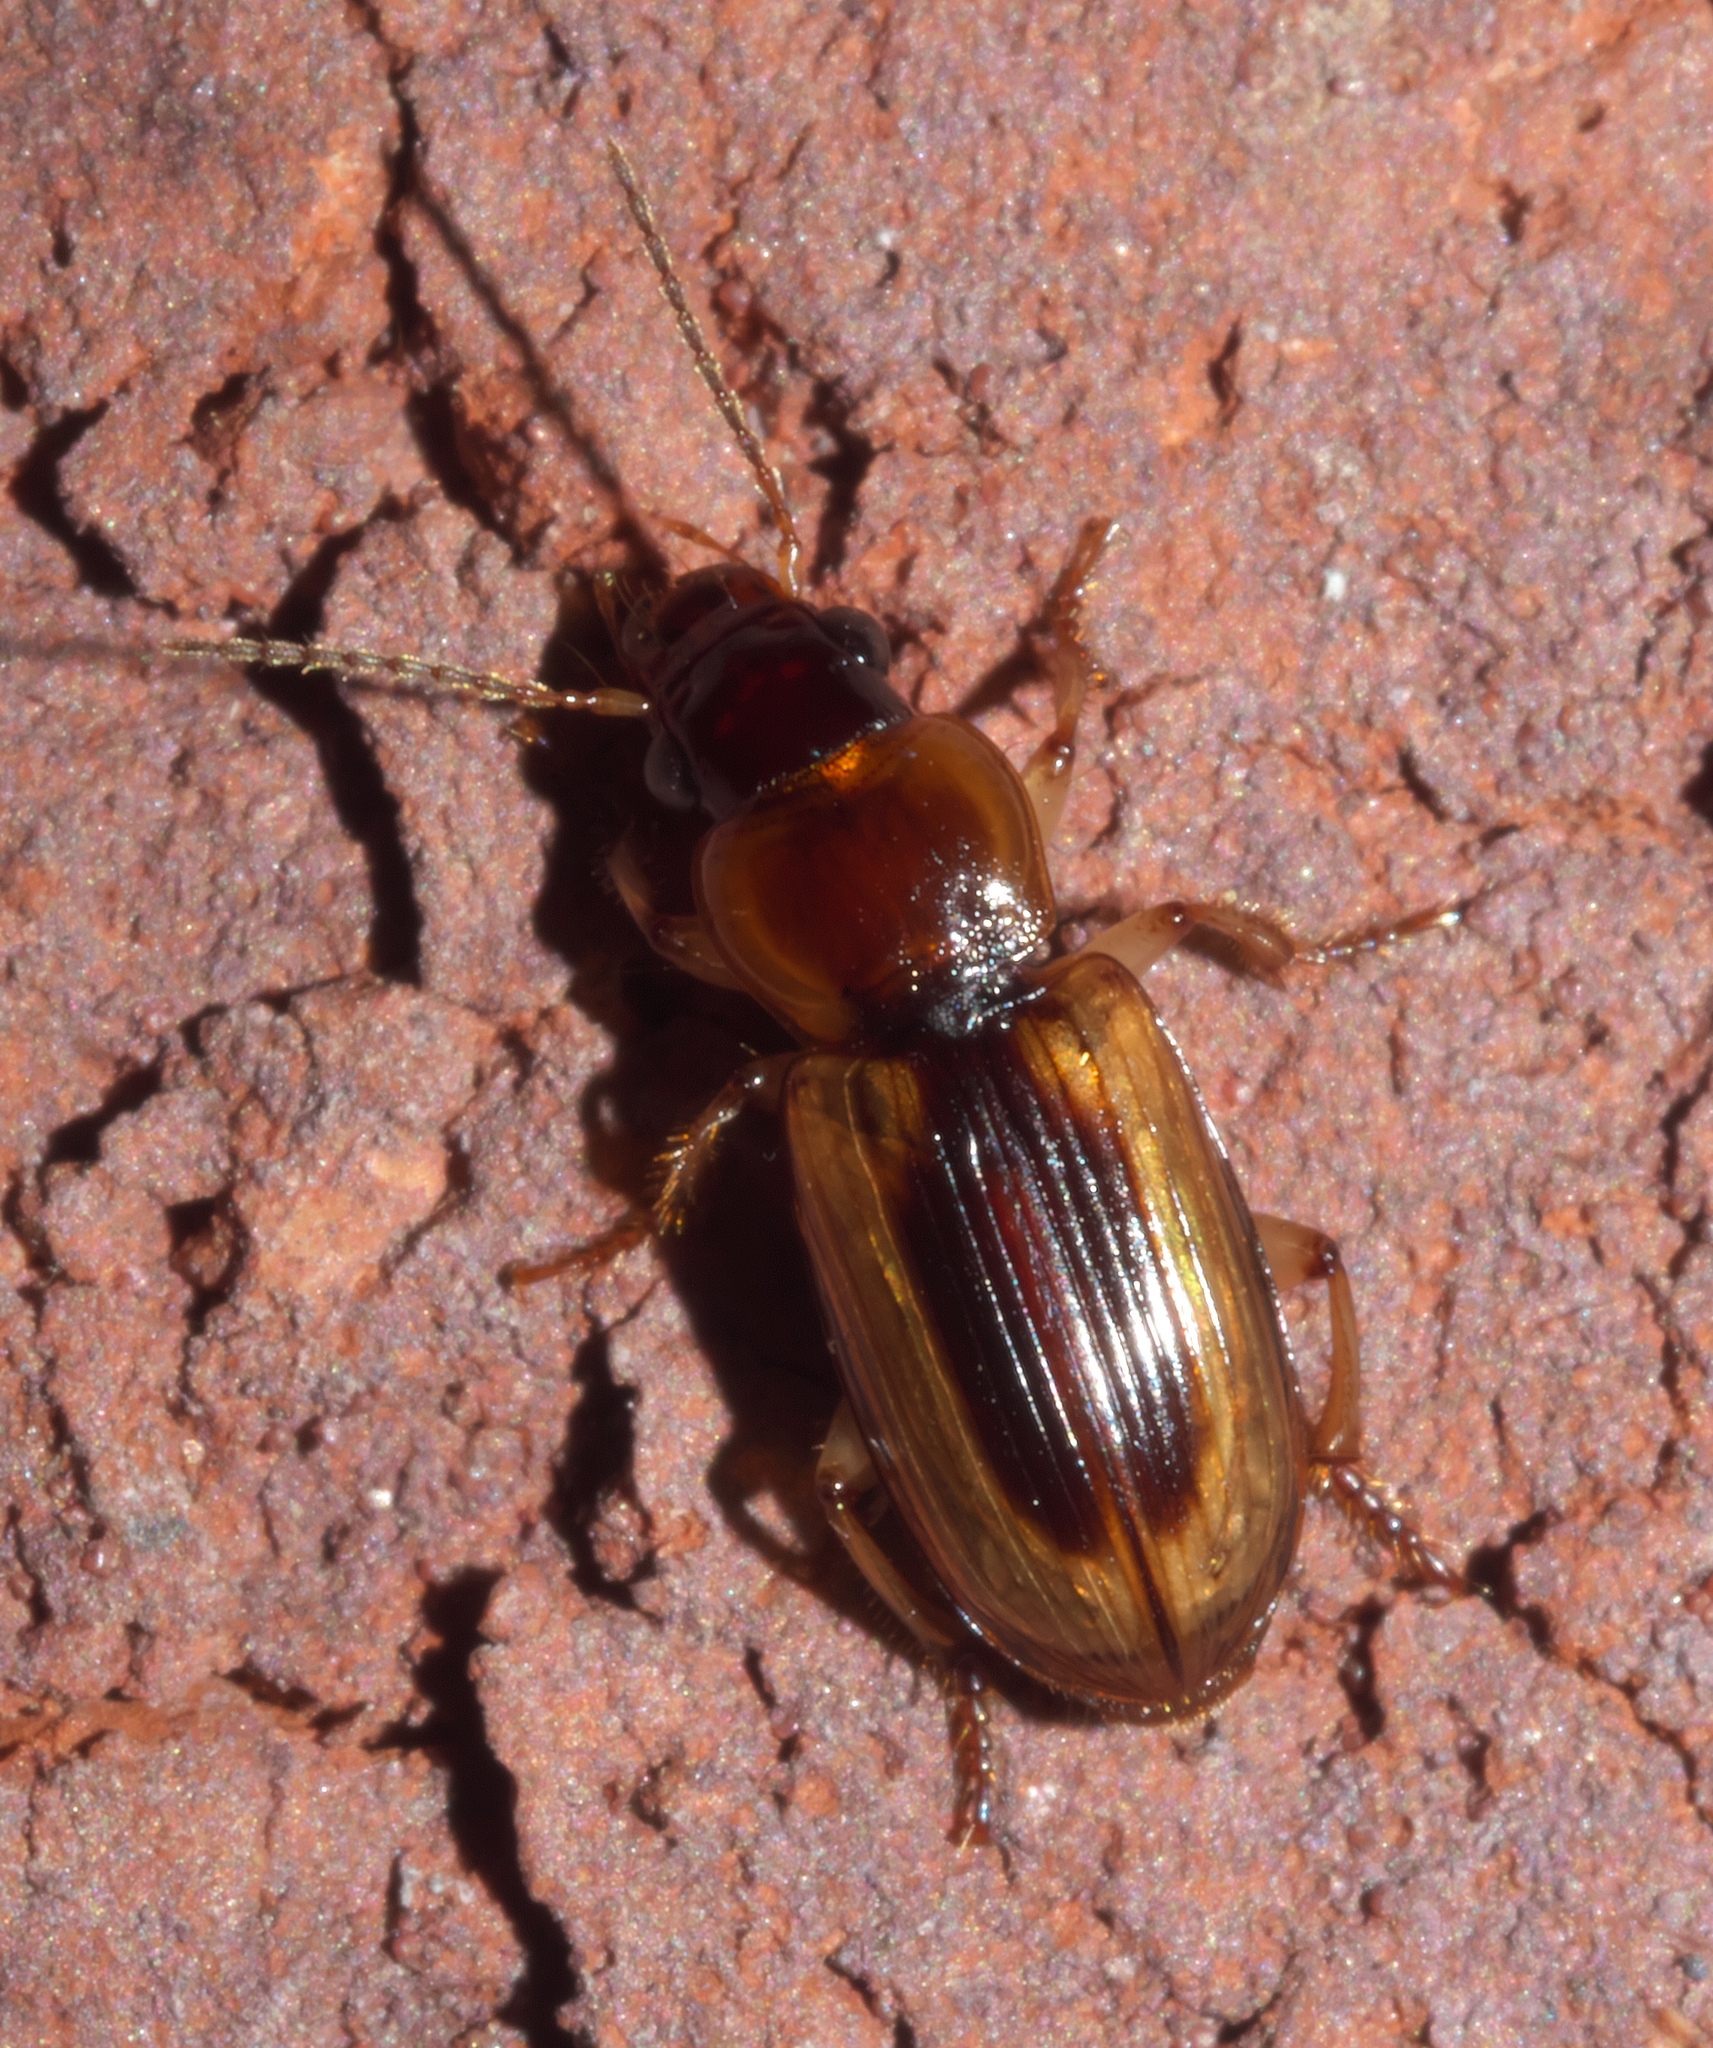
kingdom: Animalia
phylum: Arthropoda
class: Insecta
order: Coleoptera
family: Carabidae
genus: Stenolophus
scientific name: Stenolophus dissimilis
